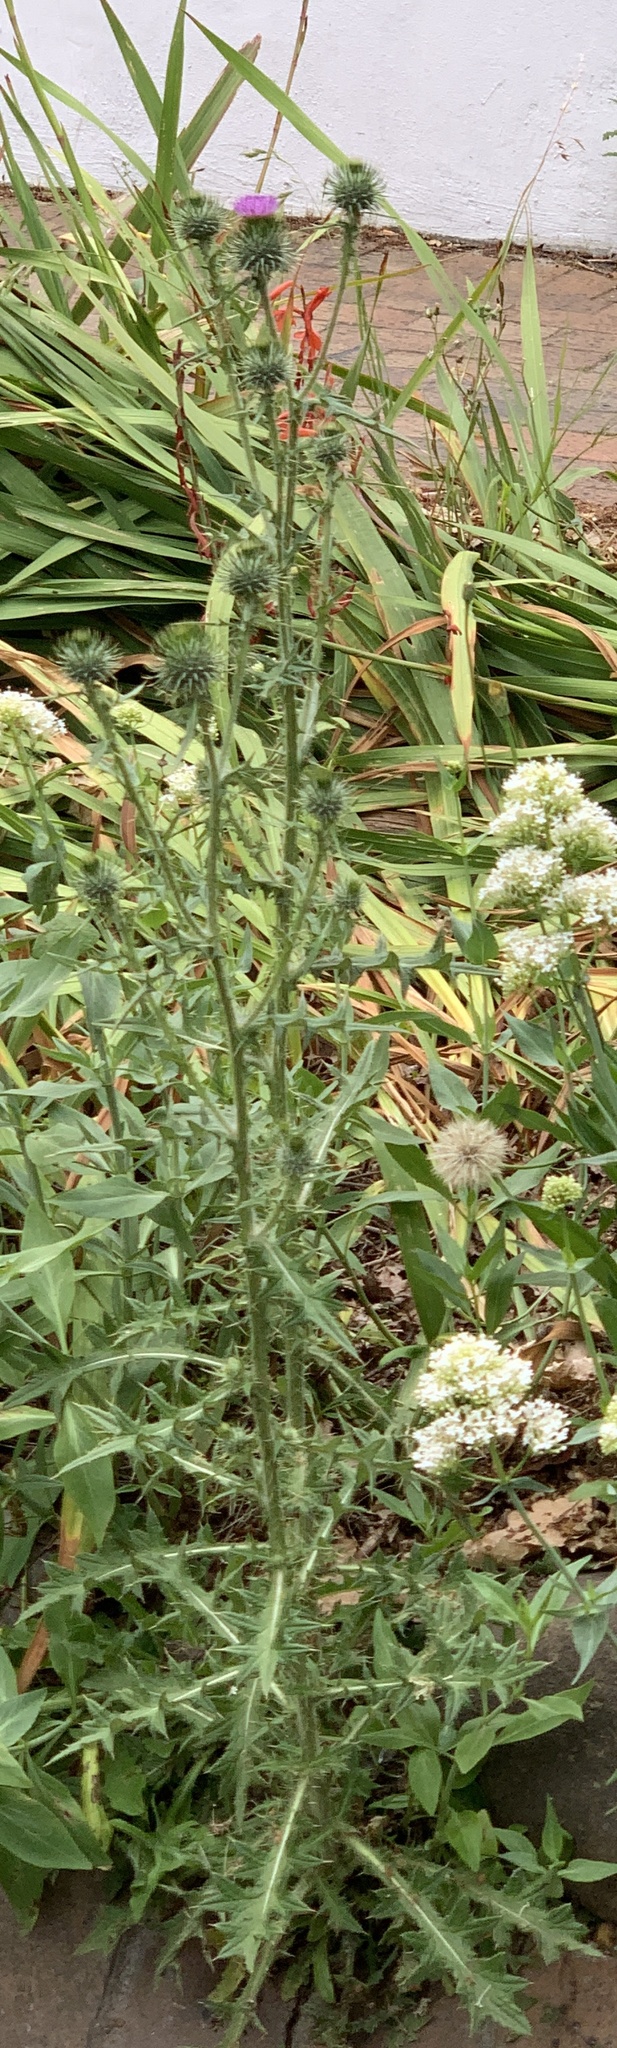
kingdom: Plantae
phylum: Tracheophyta
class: Magnoliopsida
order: Asterales
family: Asteraceae
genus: Cirsium
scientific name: Cirsium vulgare
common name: Bull thistle
